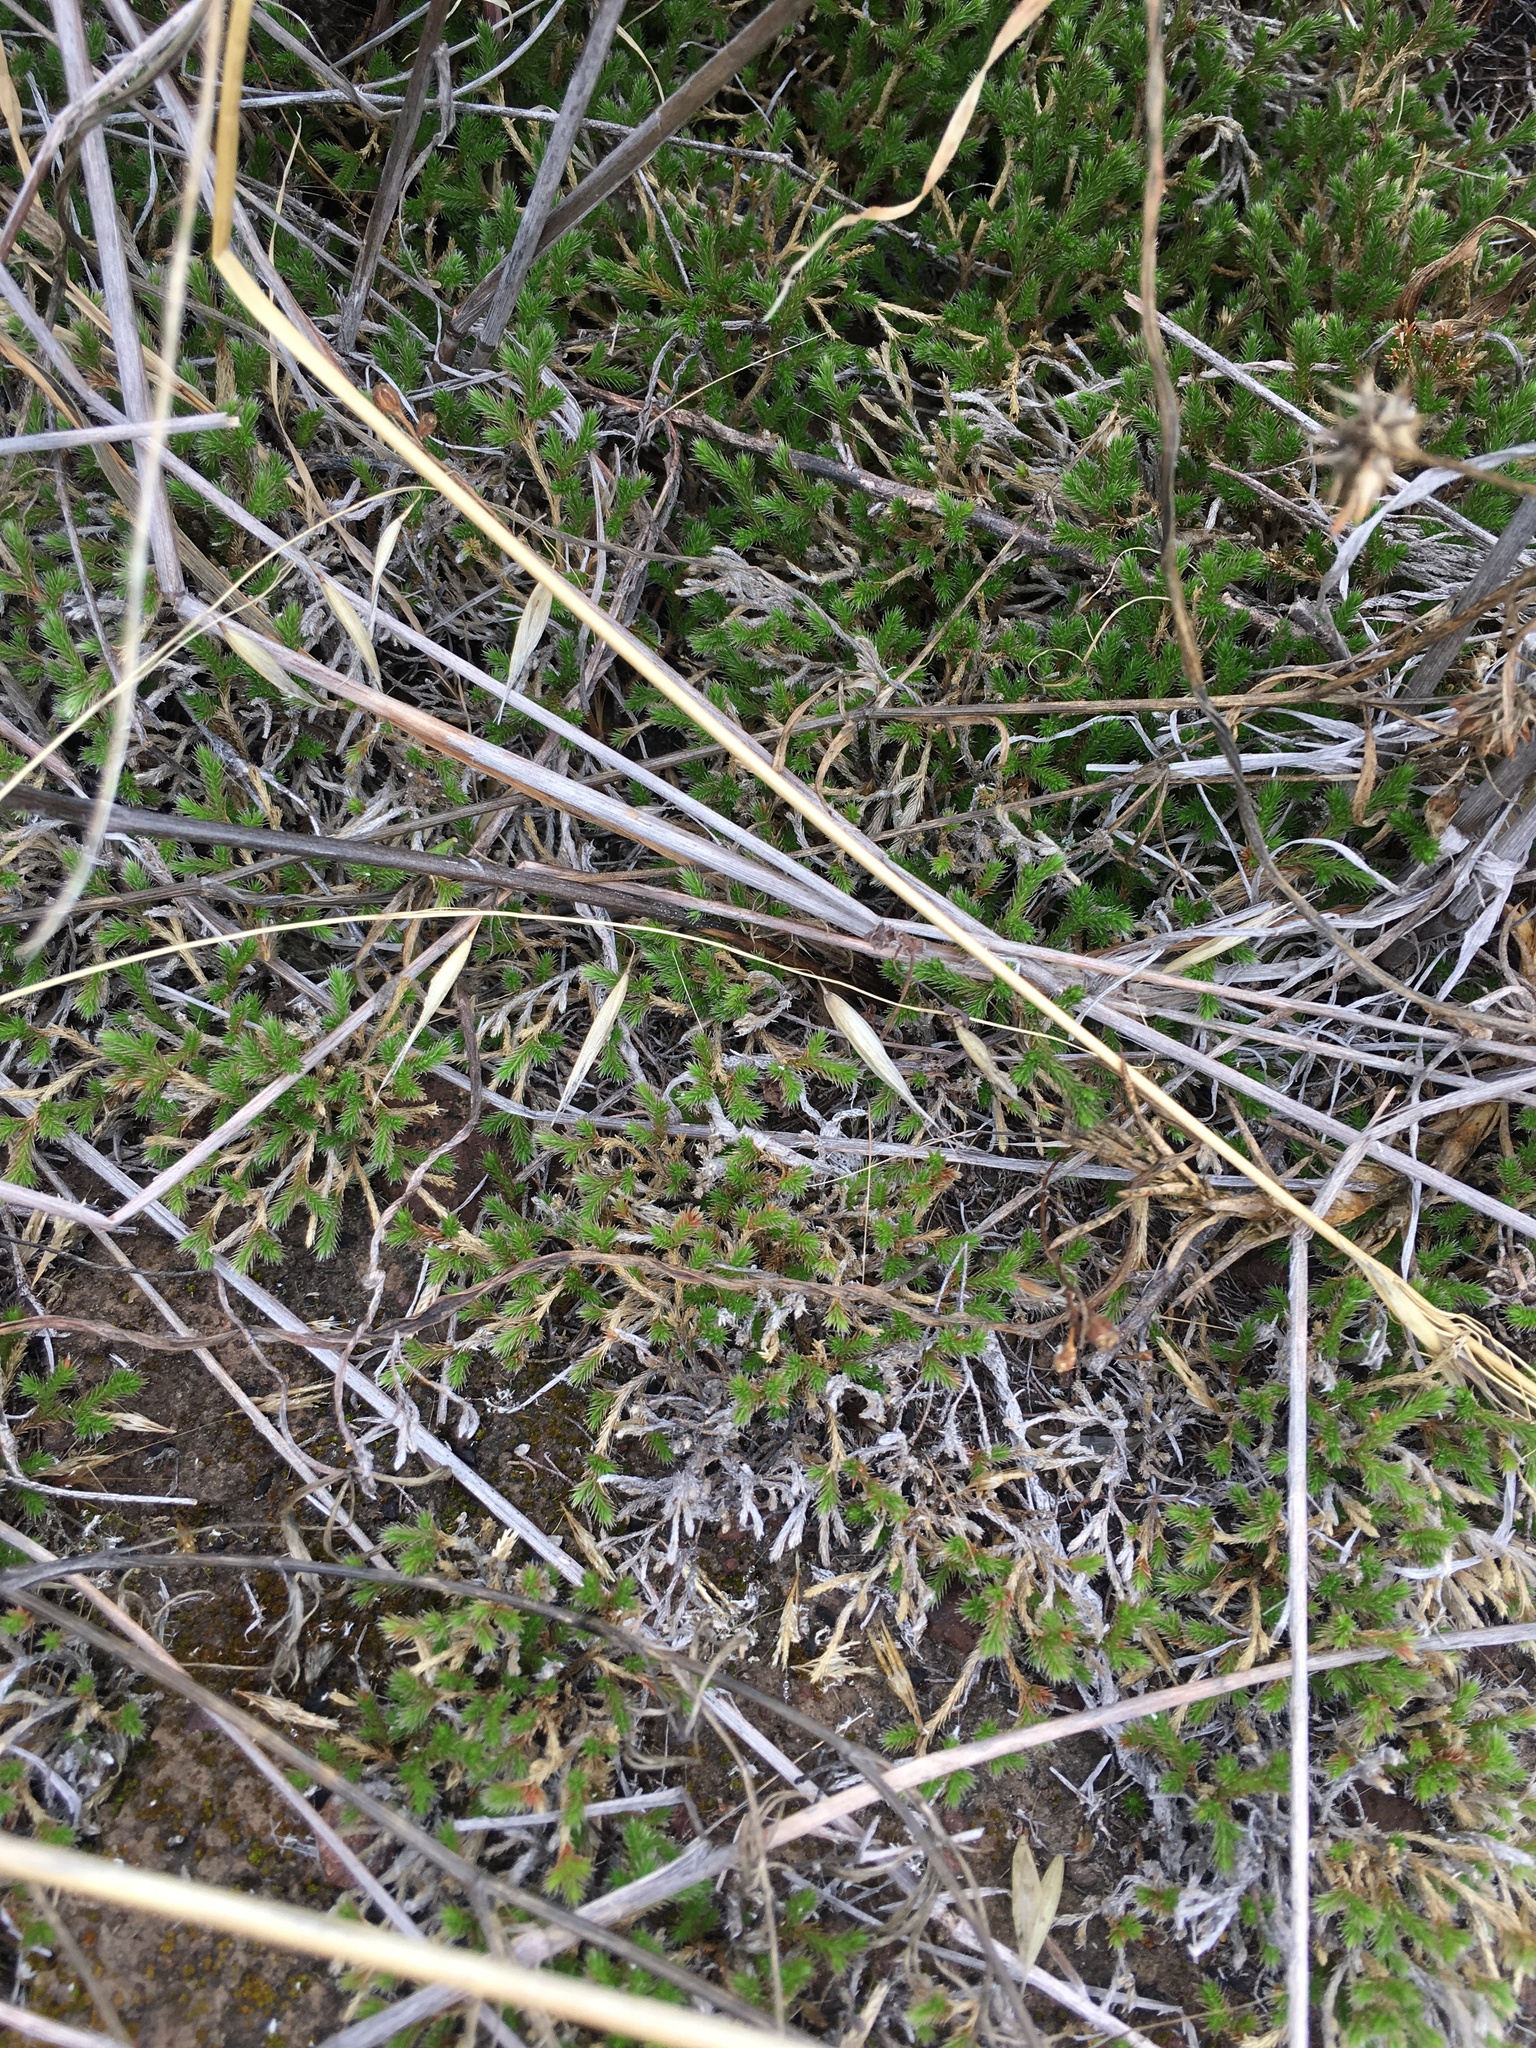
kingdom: Plantae
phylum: Tracheophyta
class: Lycopodiopsida
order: Selaginellales
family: Selaginellaceae
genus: Selaginella
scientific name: Selaginella bigelovii
